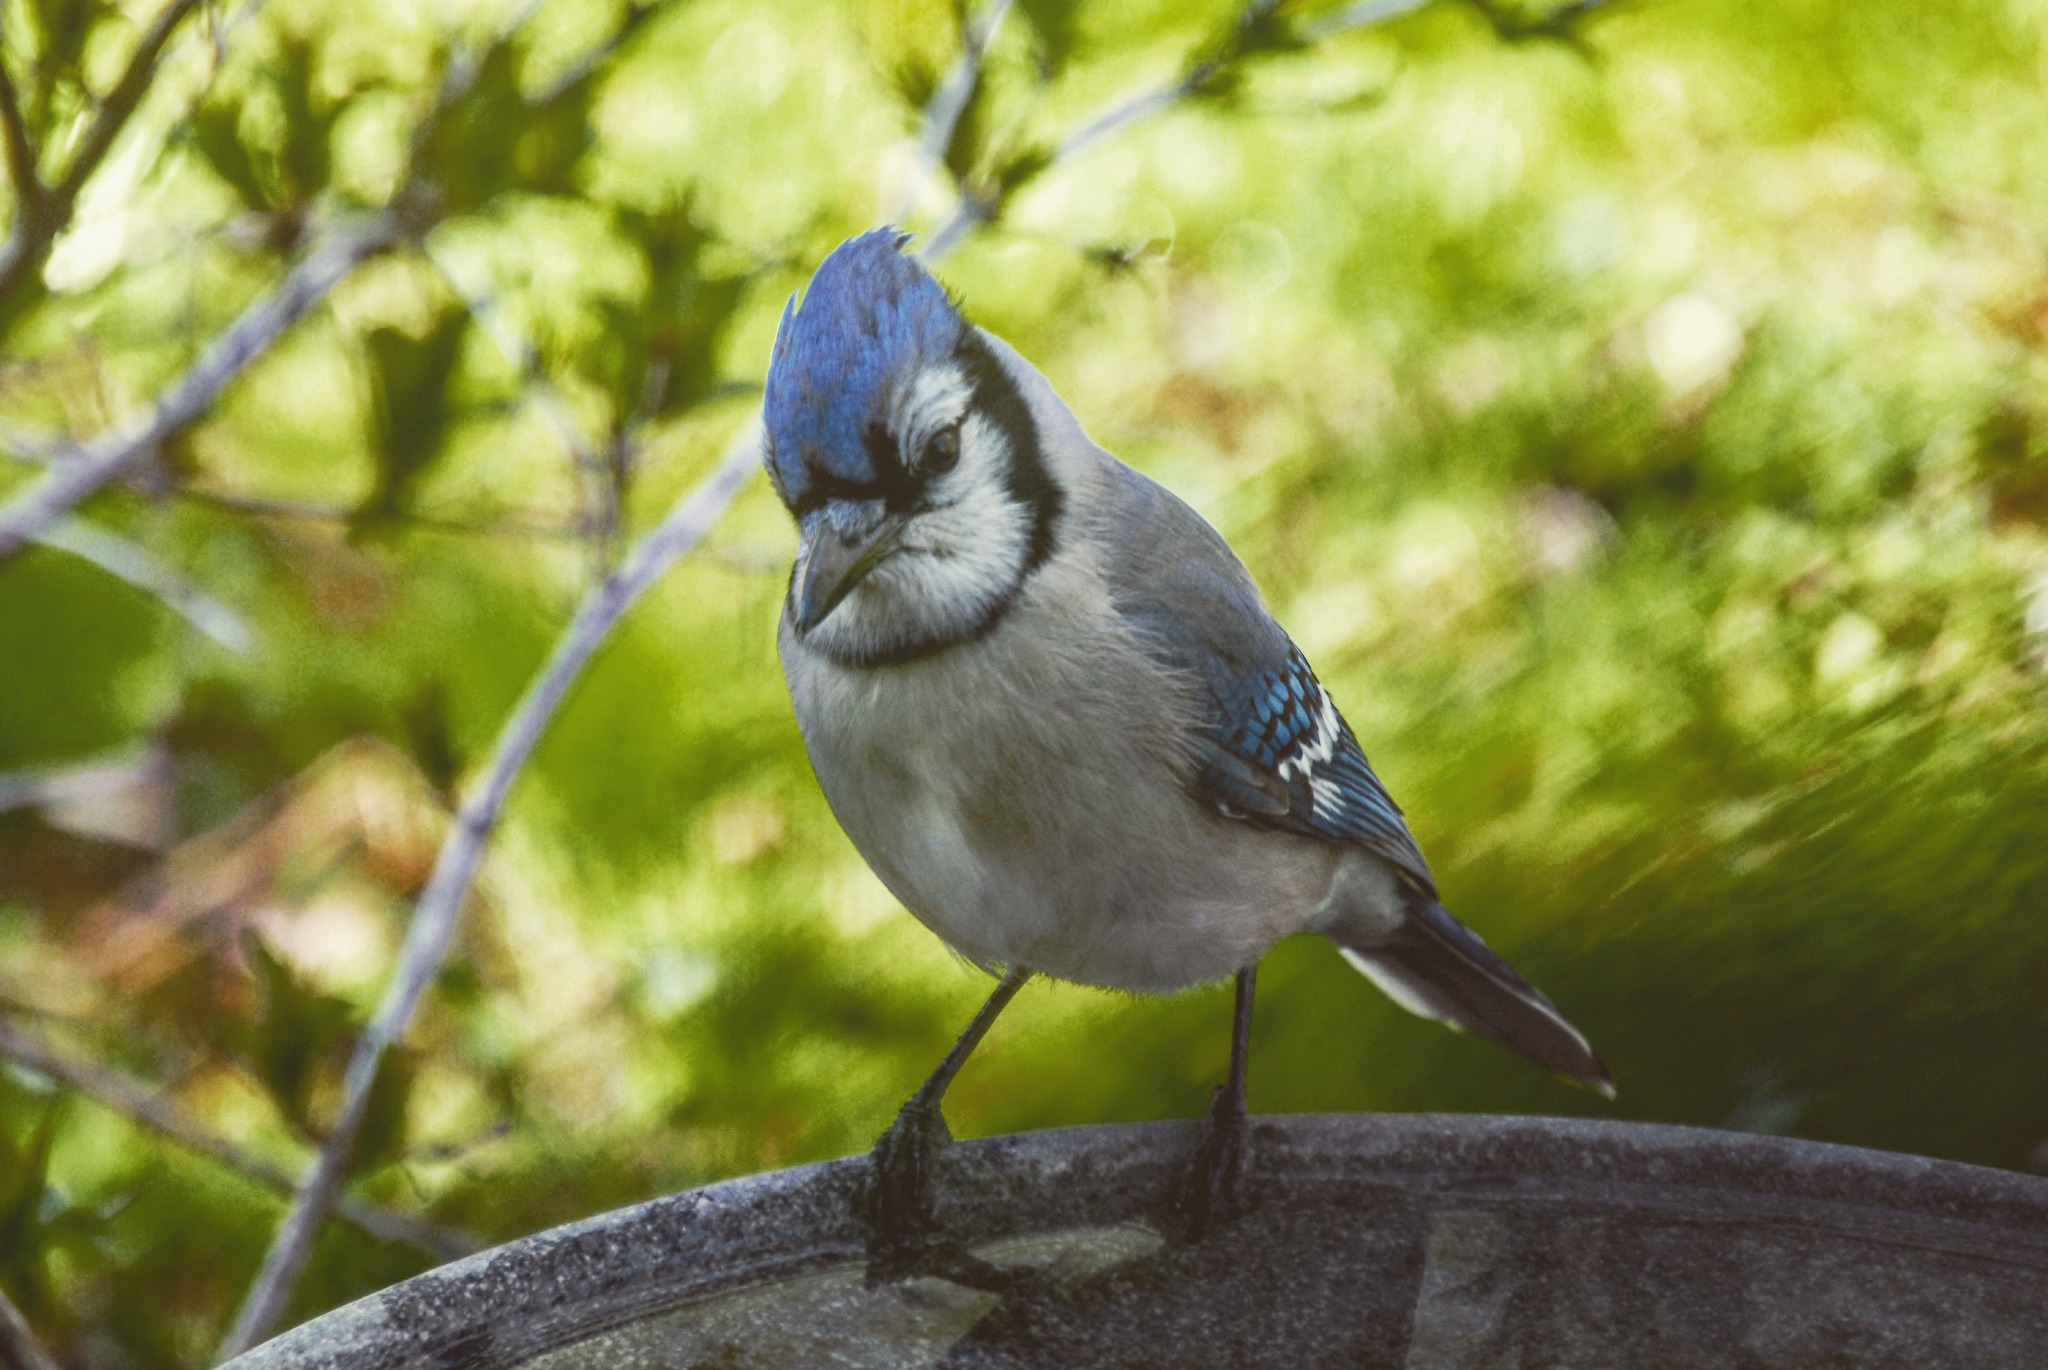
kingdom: Animalia
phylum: Chordata
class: Aves
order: Passeriformes
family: Corvidae
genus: Cyanocitta
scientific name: Cyanocitta cristata
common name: Blue jay
